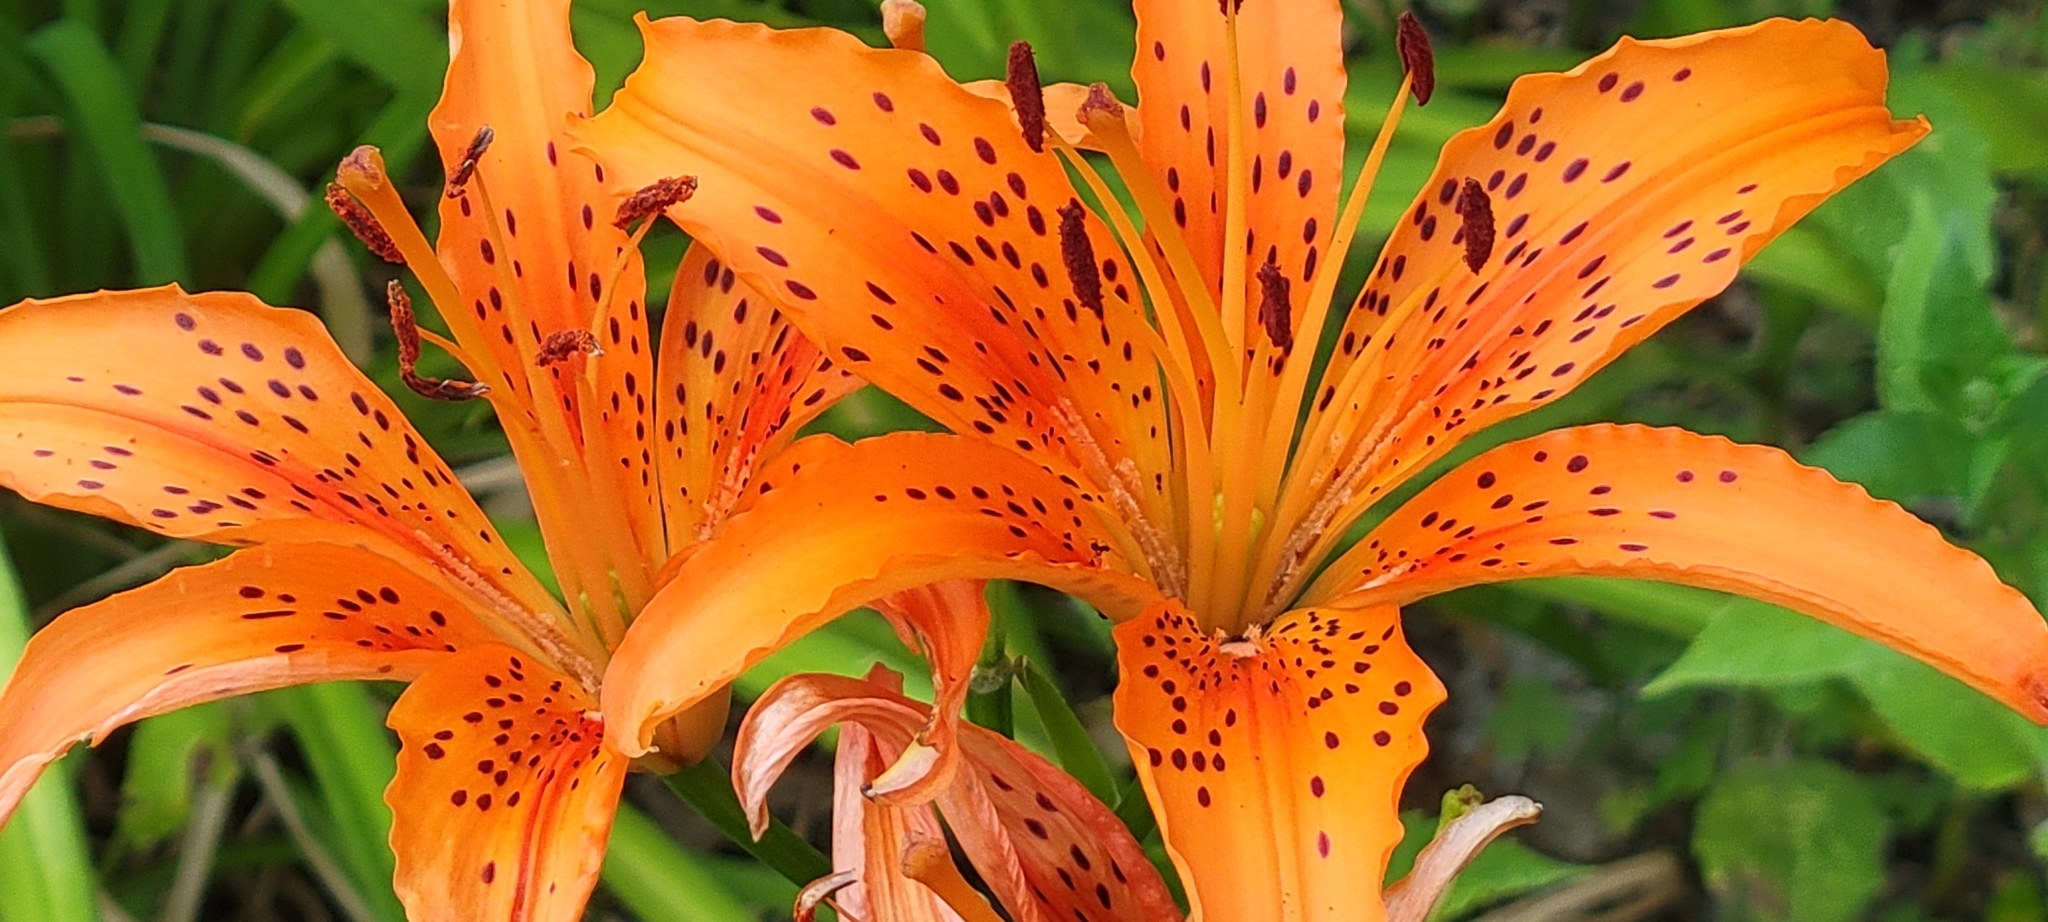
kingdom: Plantae
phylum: Tracheophyta
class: Liliopsida
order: Liliales
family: Liliaceae
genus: Lilium
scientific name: Lilium philadelphicum
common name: Red lily
